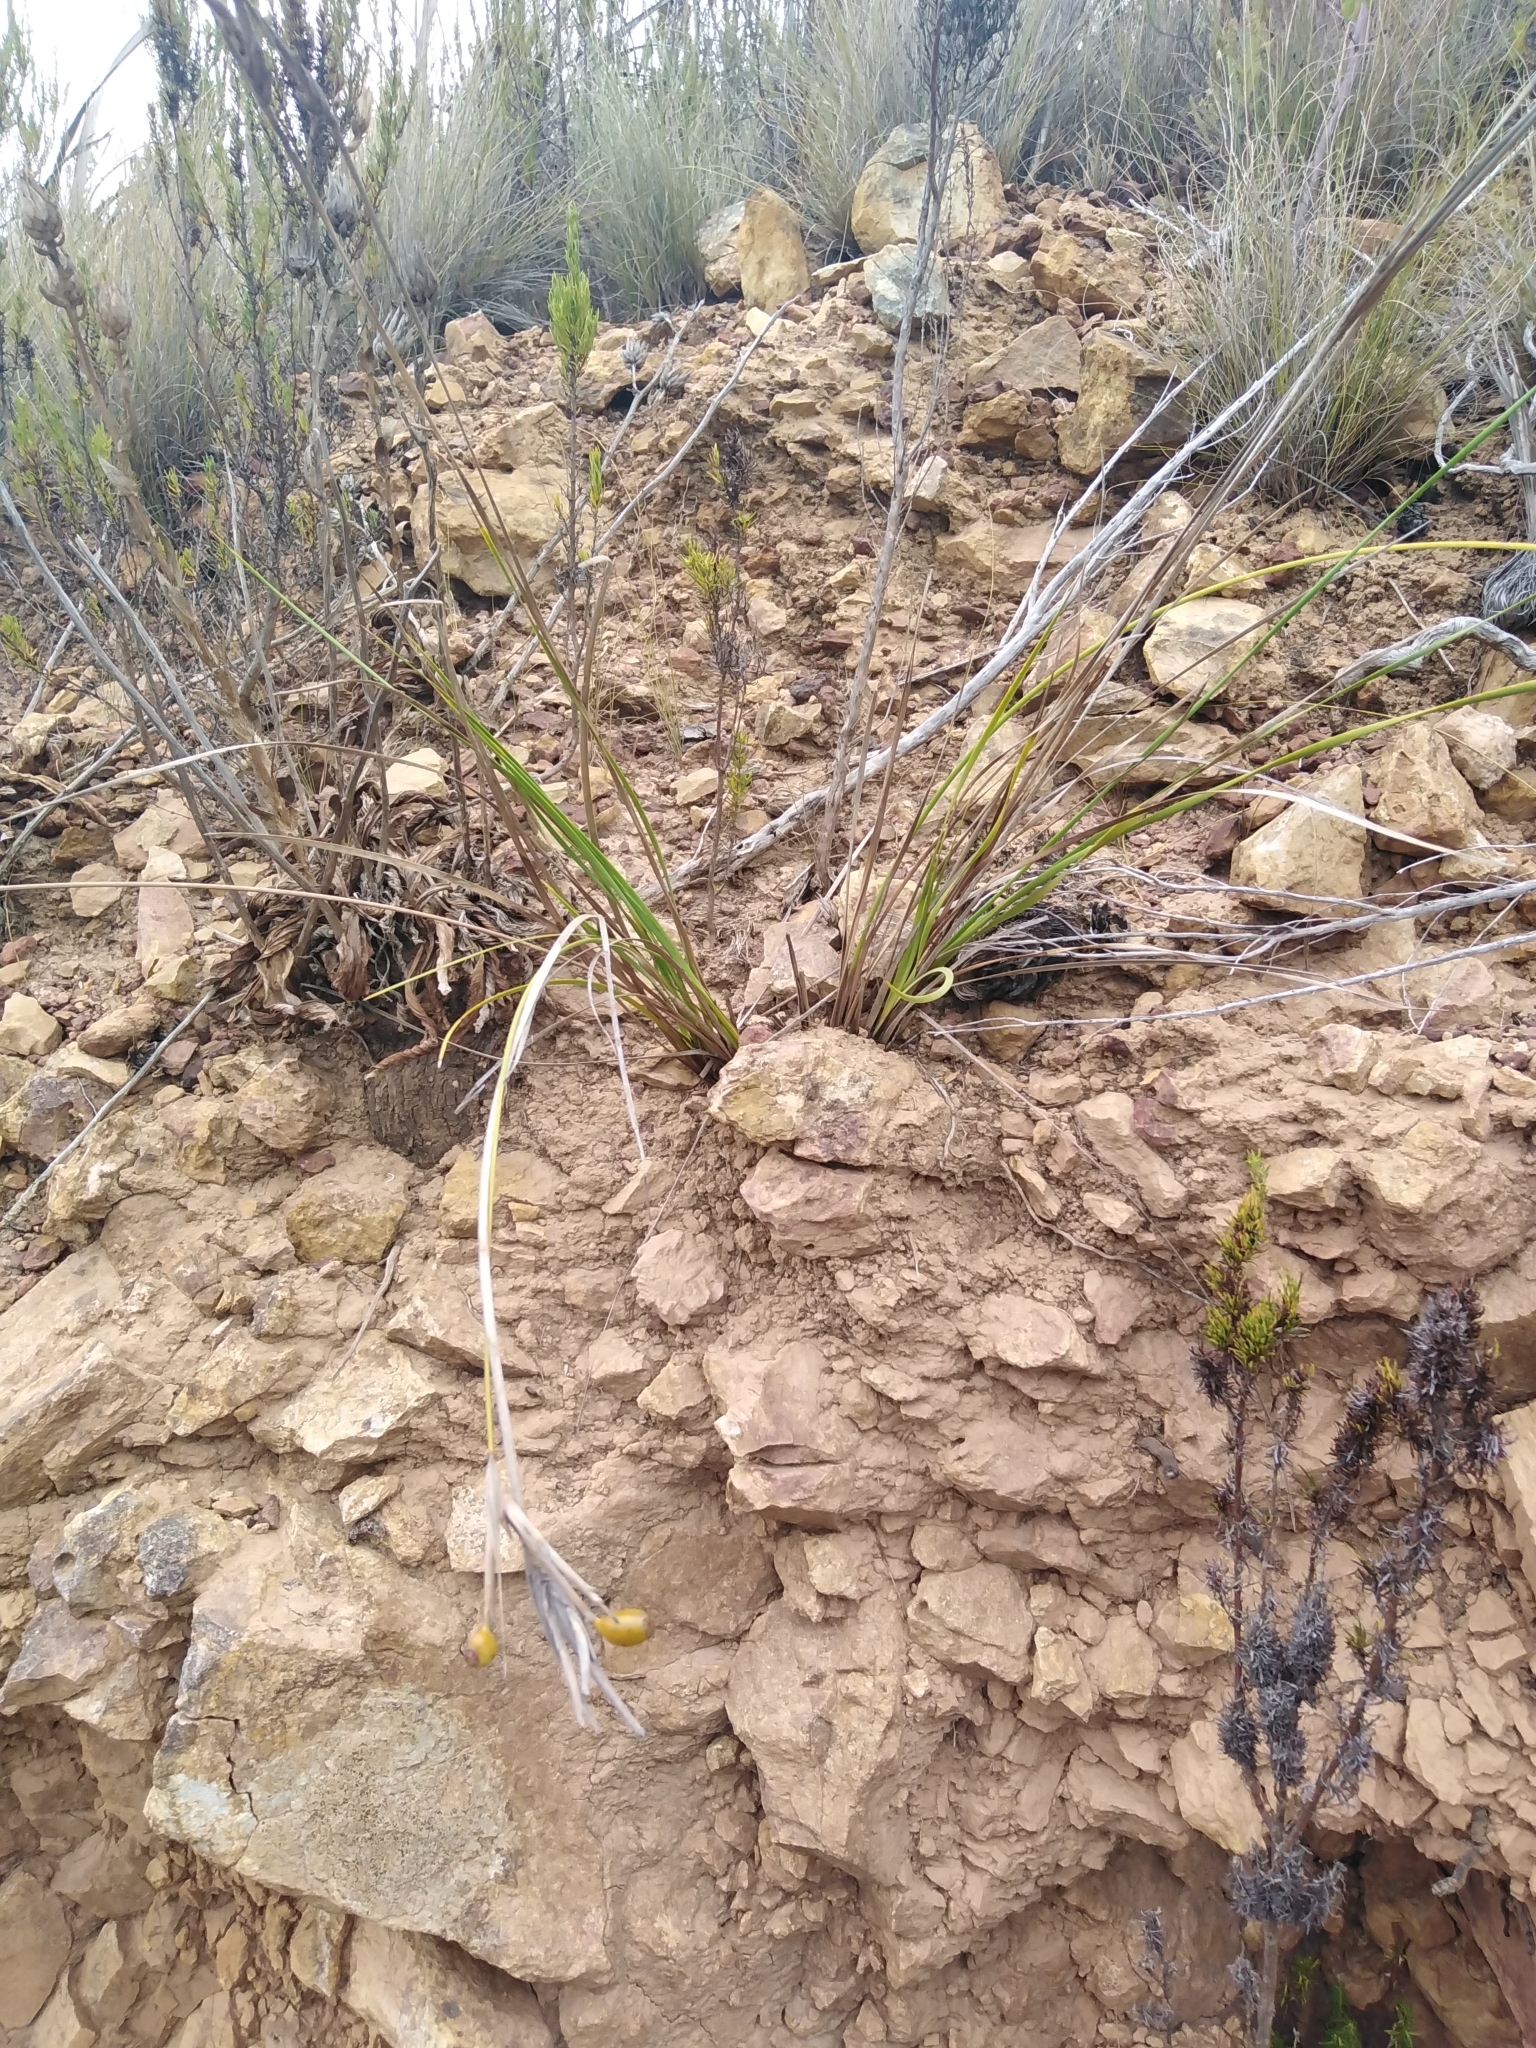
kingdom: Plantae
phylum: Tracheophyta
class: Liliopsida
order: Asparagales
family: Iridaceae
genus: Bobartia
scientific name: Bobartia gladiata
